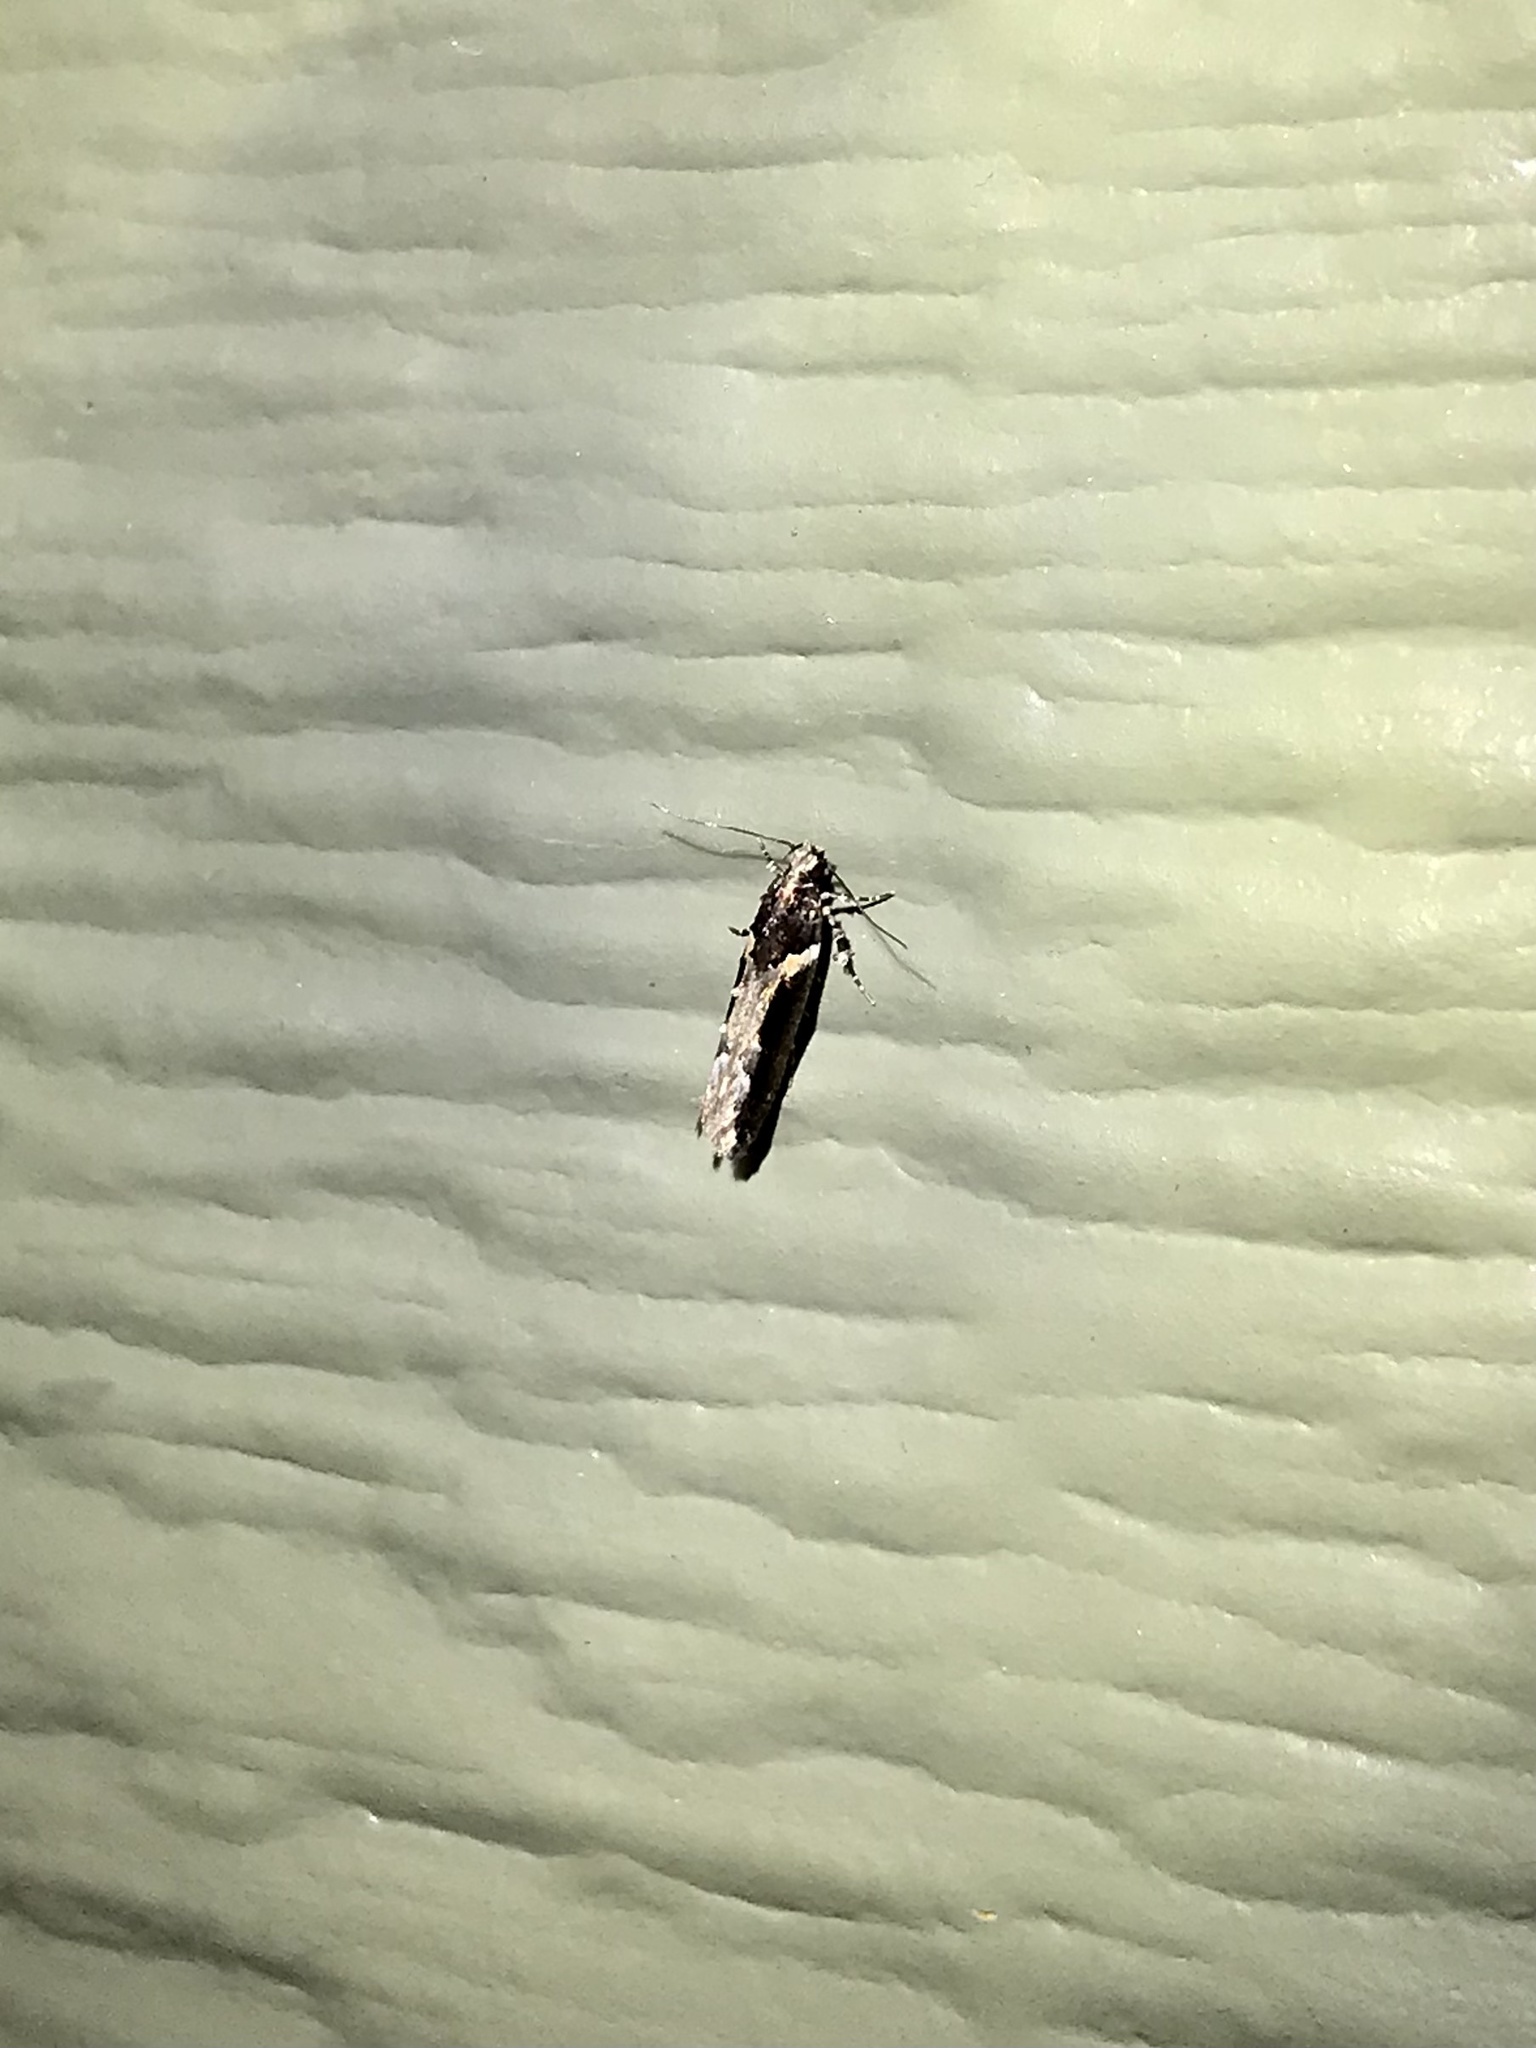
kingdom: Animalia
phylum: Arthropoda
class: Insecta
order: Lepidoptera
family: Gelechiidae
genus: Telphusa
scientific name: Telphusa longifasciella
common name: Y-backed telphusa
